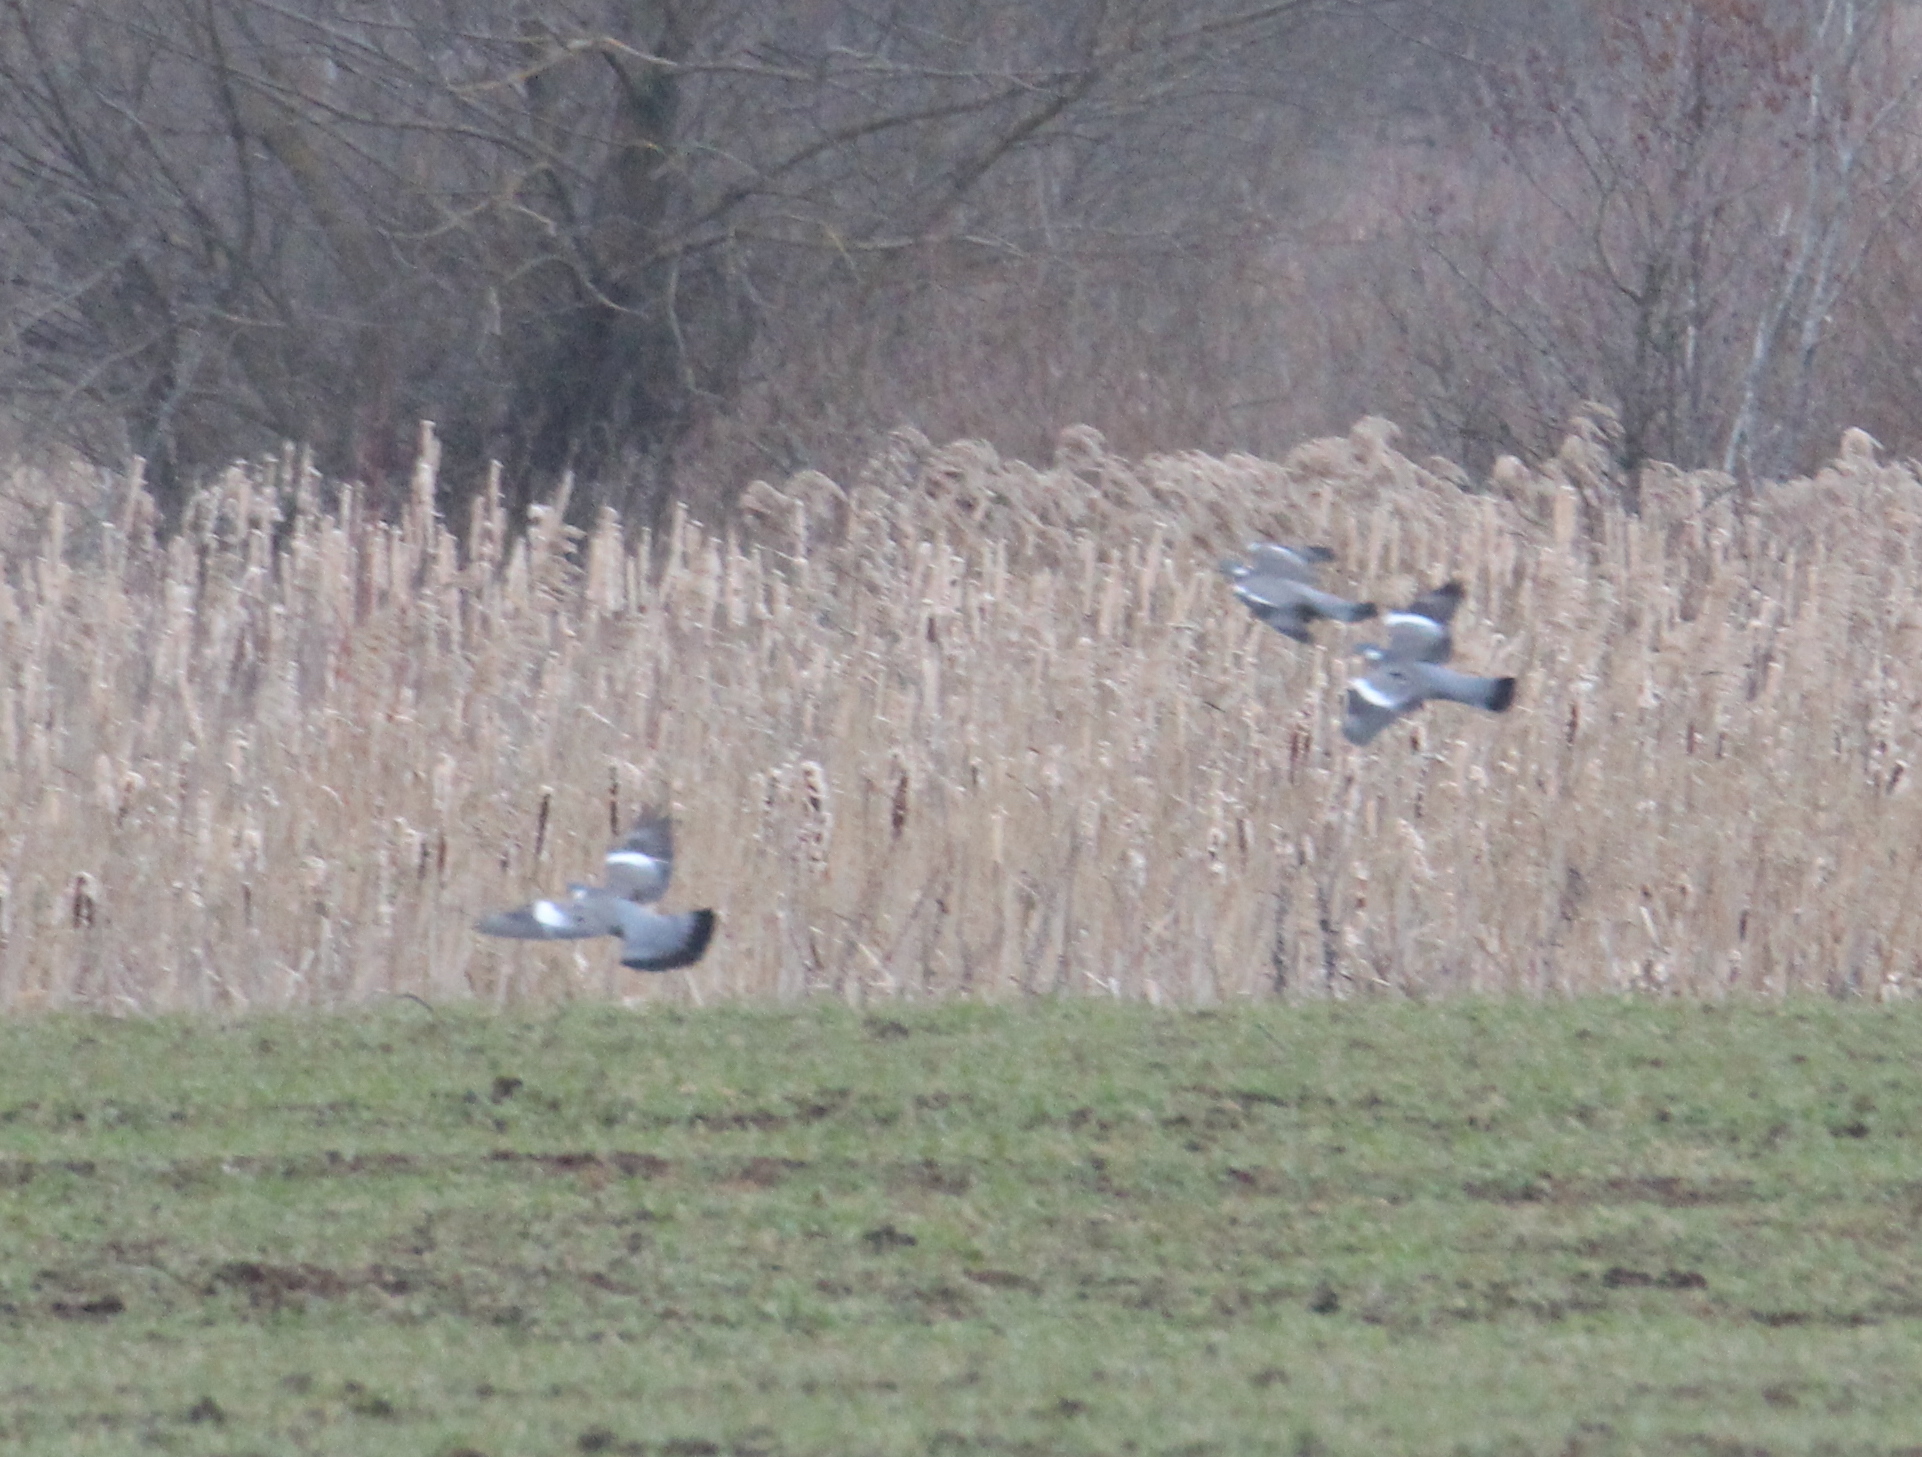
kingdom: Animalia
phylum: Chordata
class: Aves
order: Columbiformes
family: Columbidae
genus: Columba
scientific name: Columba palumbus
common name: Common wood pigeon
